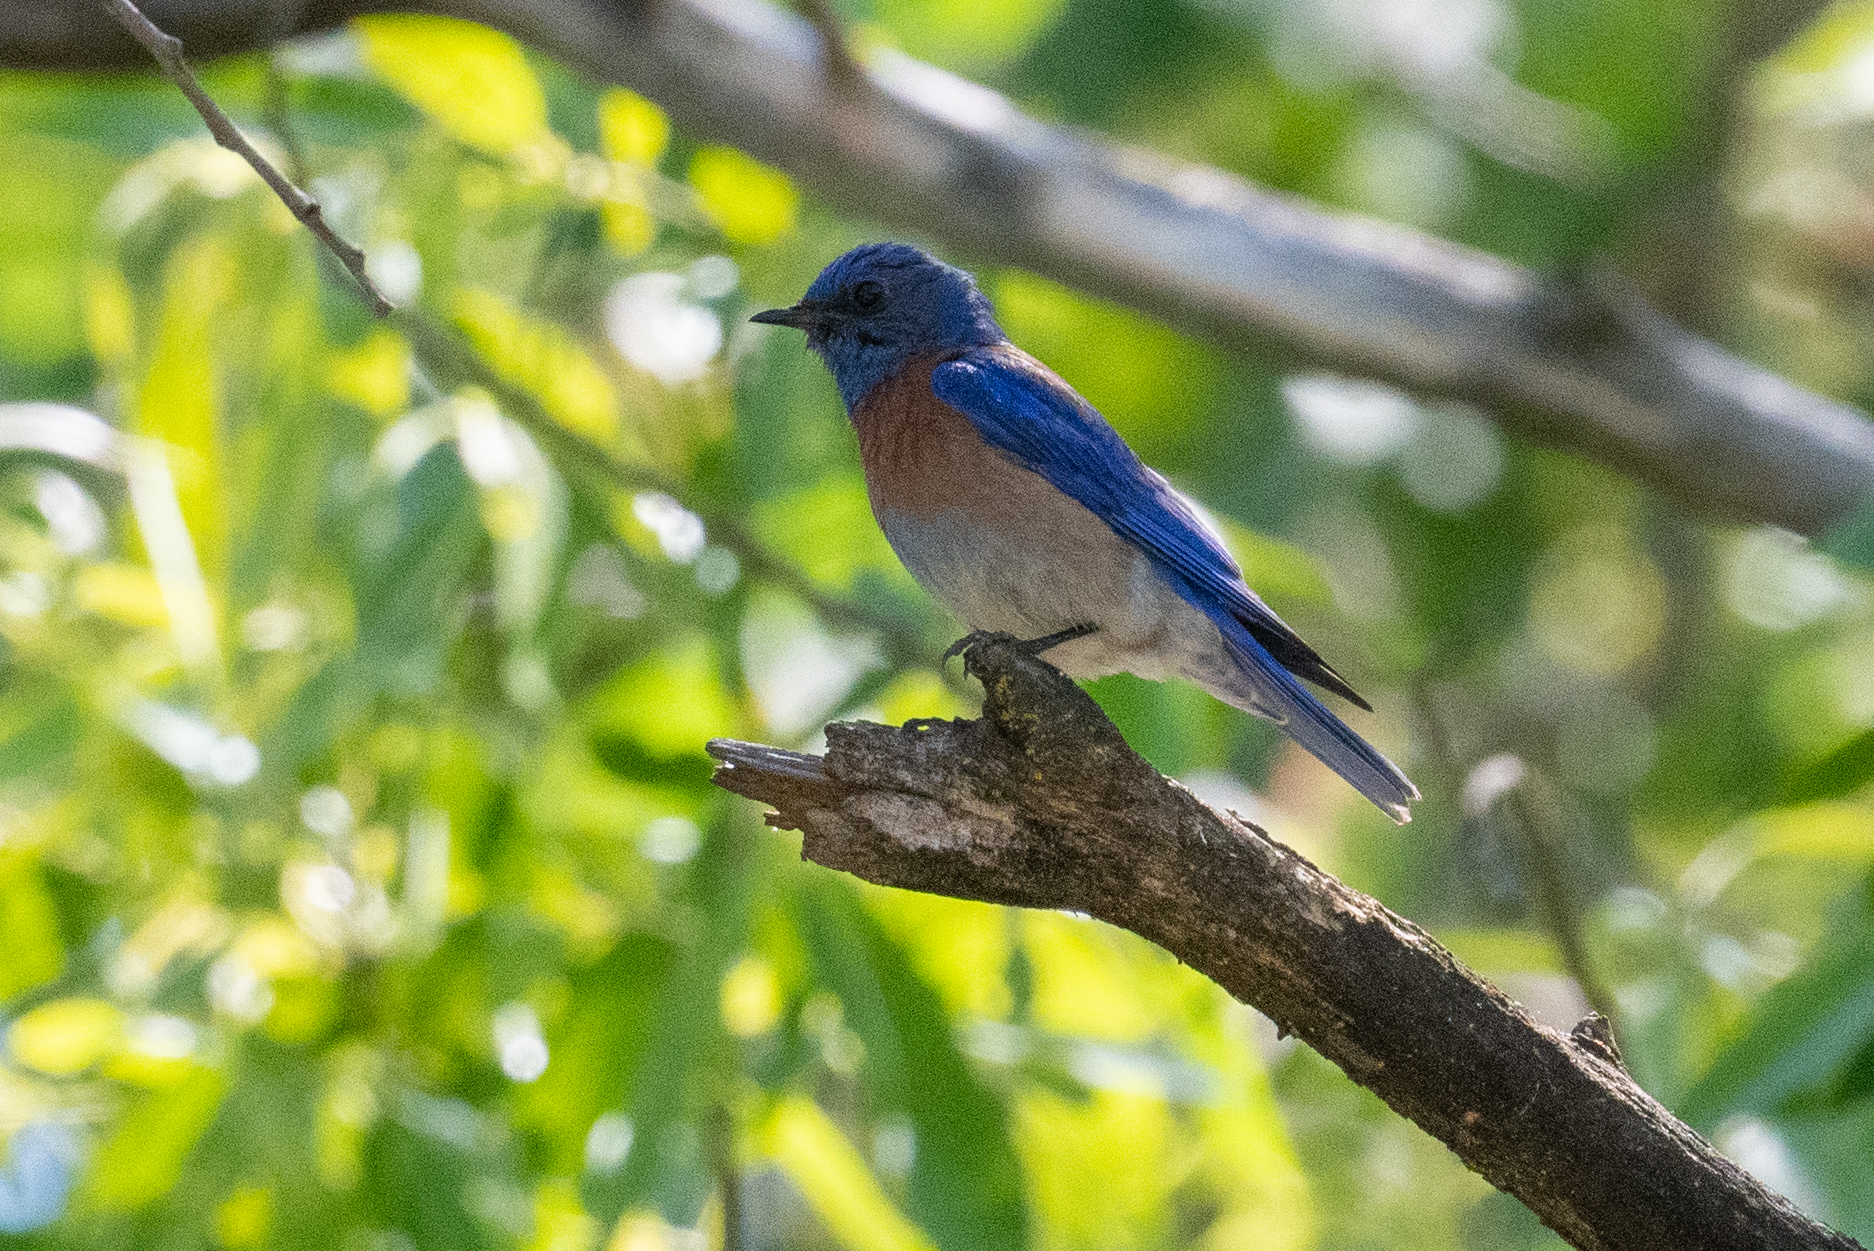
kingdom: Animalia
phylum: Chordata
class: Aves
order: Passeriformes
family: Turdidae
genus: Sialia
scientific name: Sialia mexicana
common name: Western bluebird
